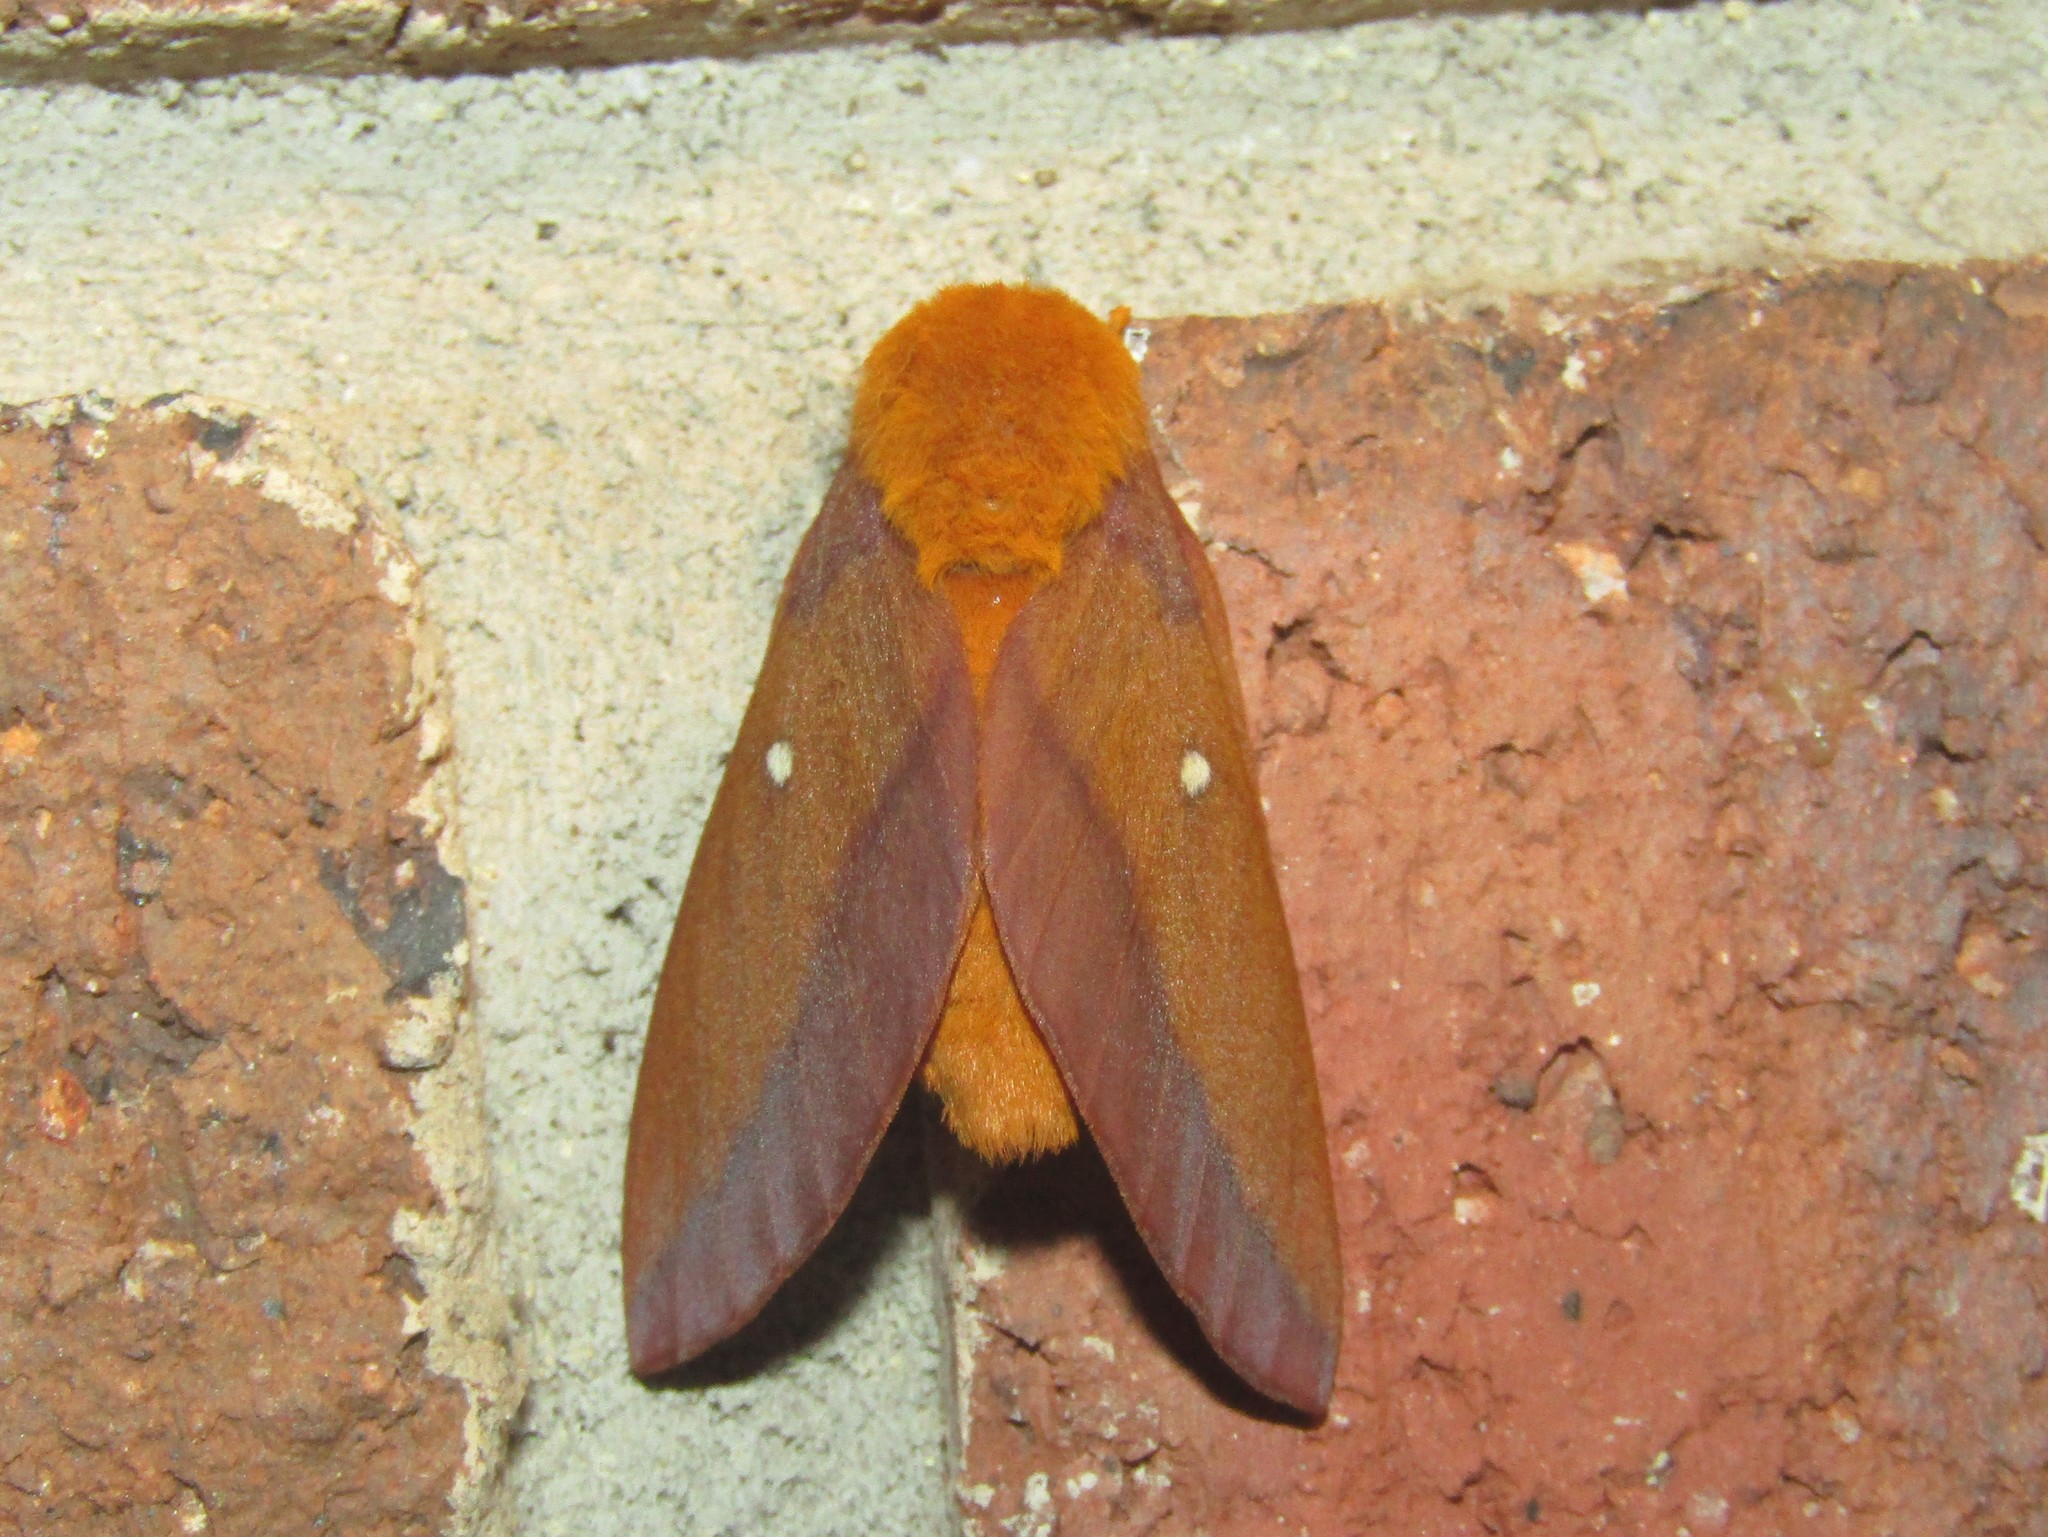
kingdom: Animalia
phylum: Arthropoda
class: Insecta
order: Lepidoptera
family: Saturniidae
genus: Anisota
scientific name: Anisota virginiensis
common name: Pink striped oakworm moth
